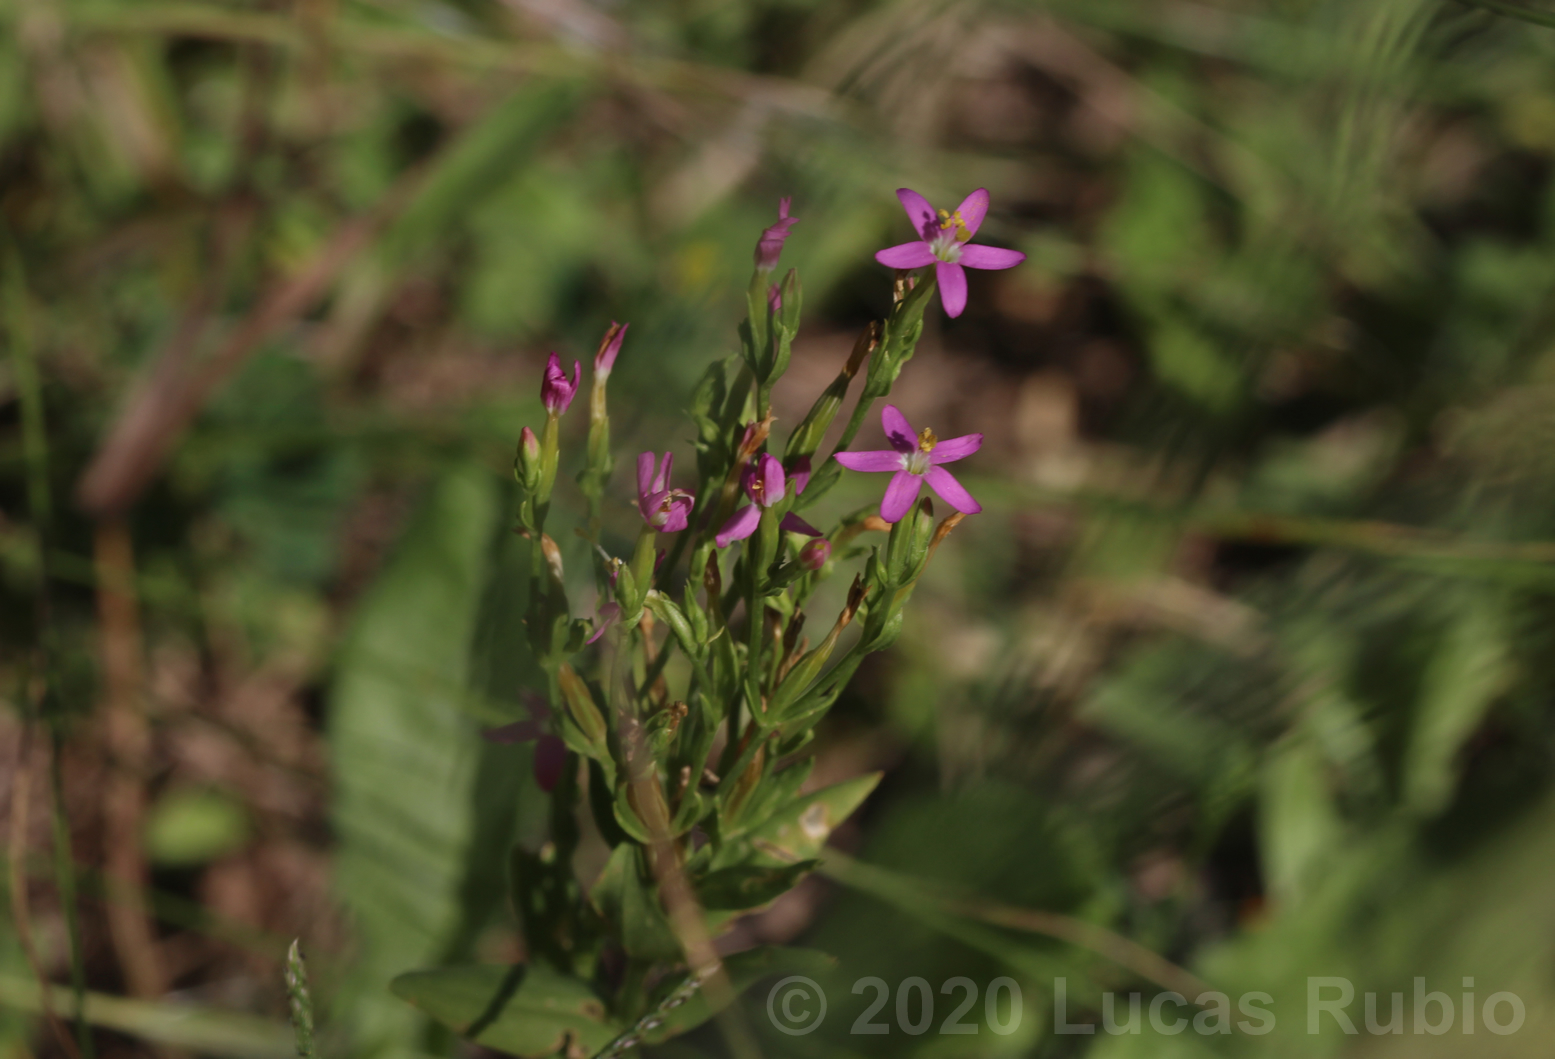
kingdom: Plantae
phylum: Tracheophyta
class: Magnoliopsida
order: Gentianales
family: Gentianaceae
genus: Centaurium
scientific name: Centaurium pulchellum
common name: Lesser centaury
